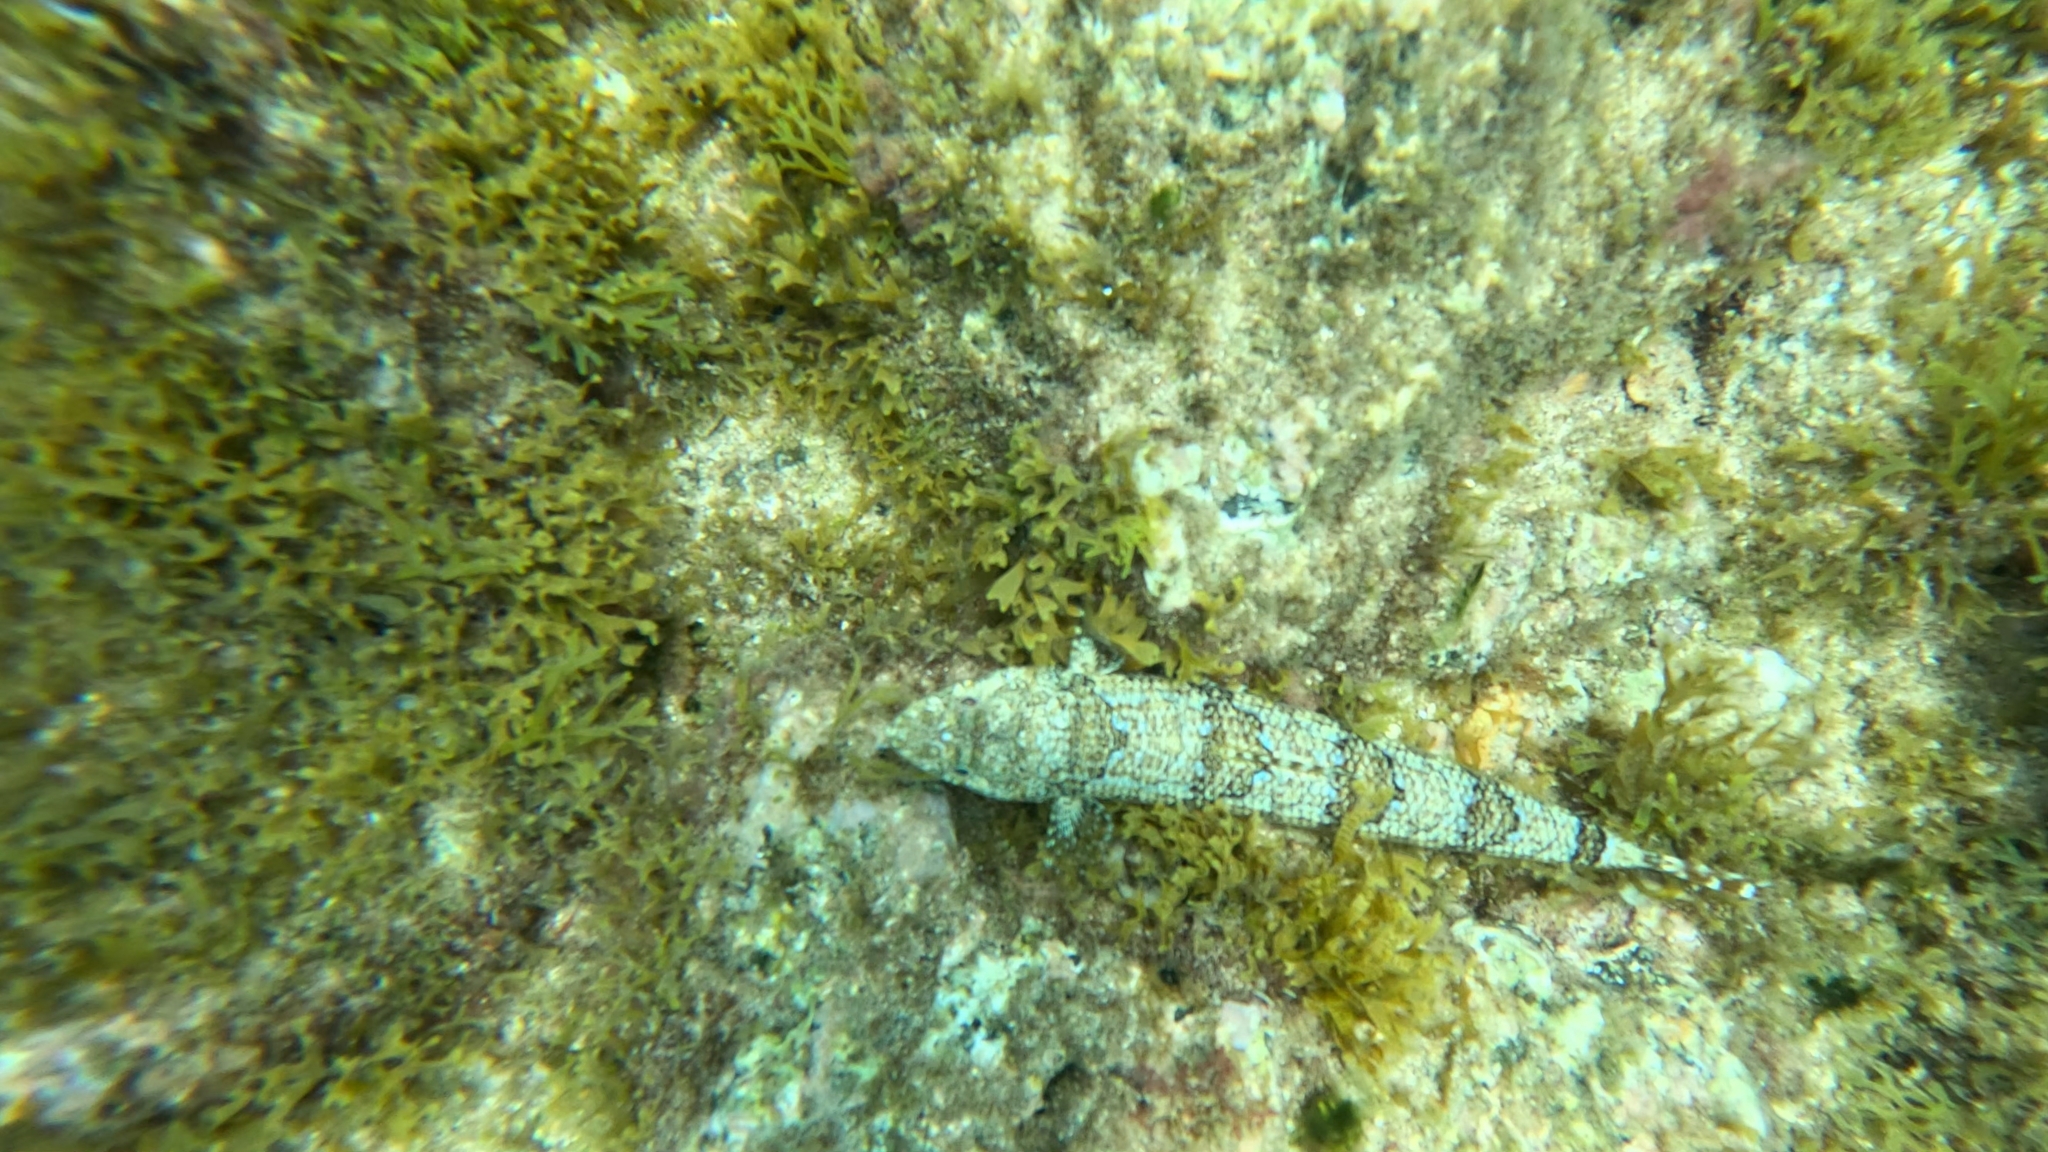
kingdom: Animalia
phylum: Chordata
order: Aulopiformes
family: Synodontidae
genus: Synodus
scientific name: Synodus synodus
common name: Red lizardfish
